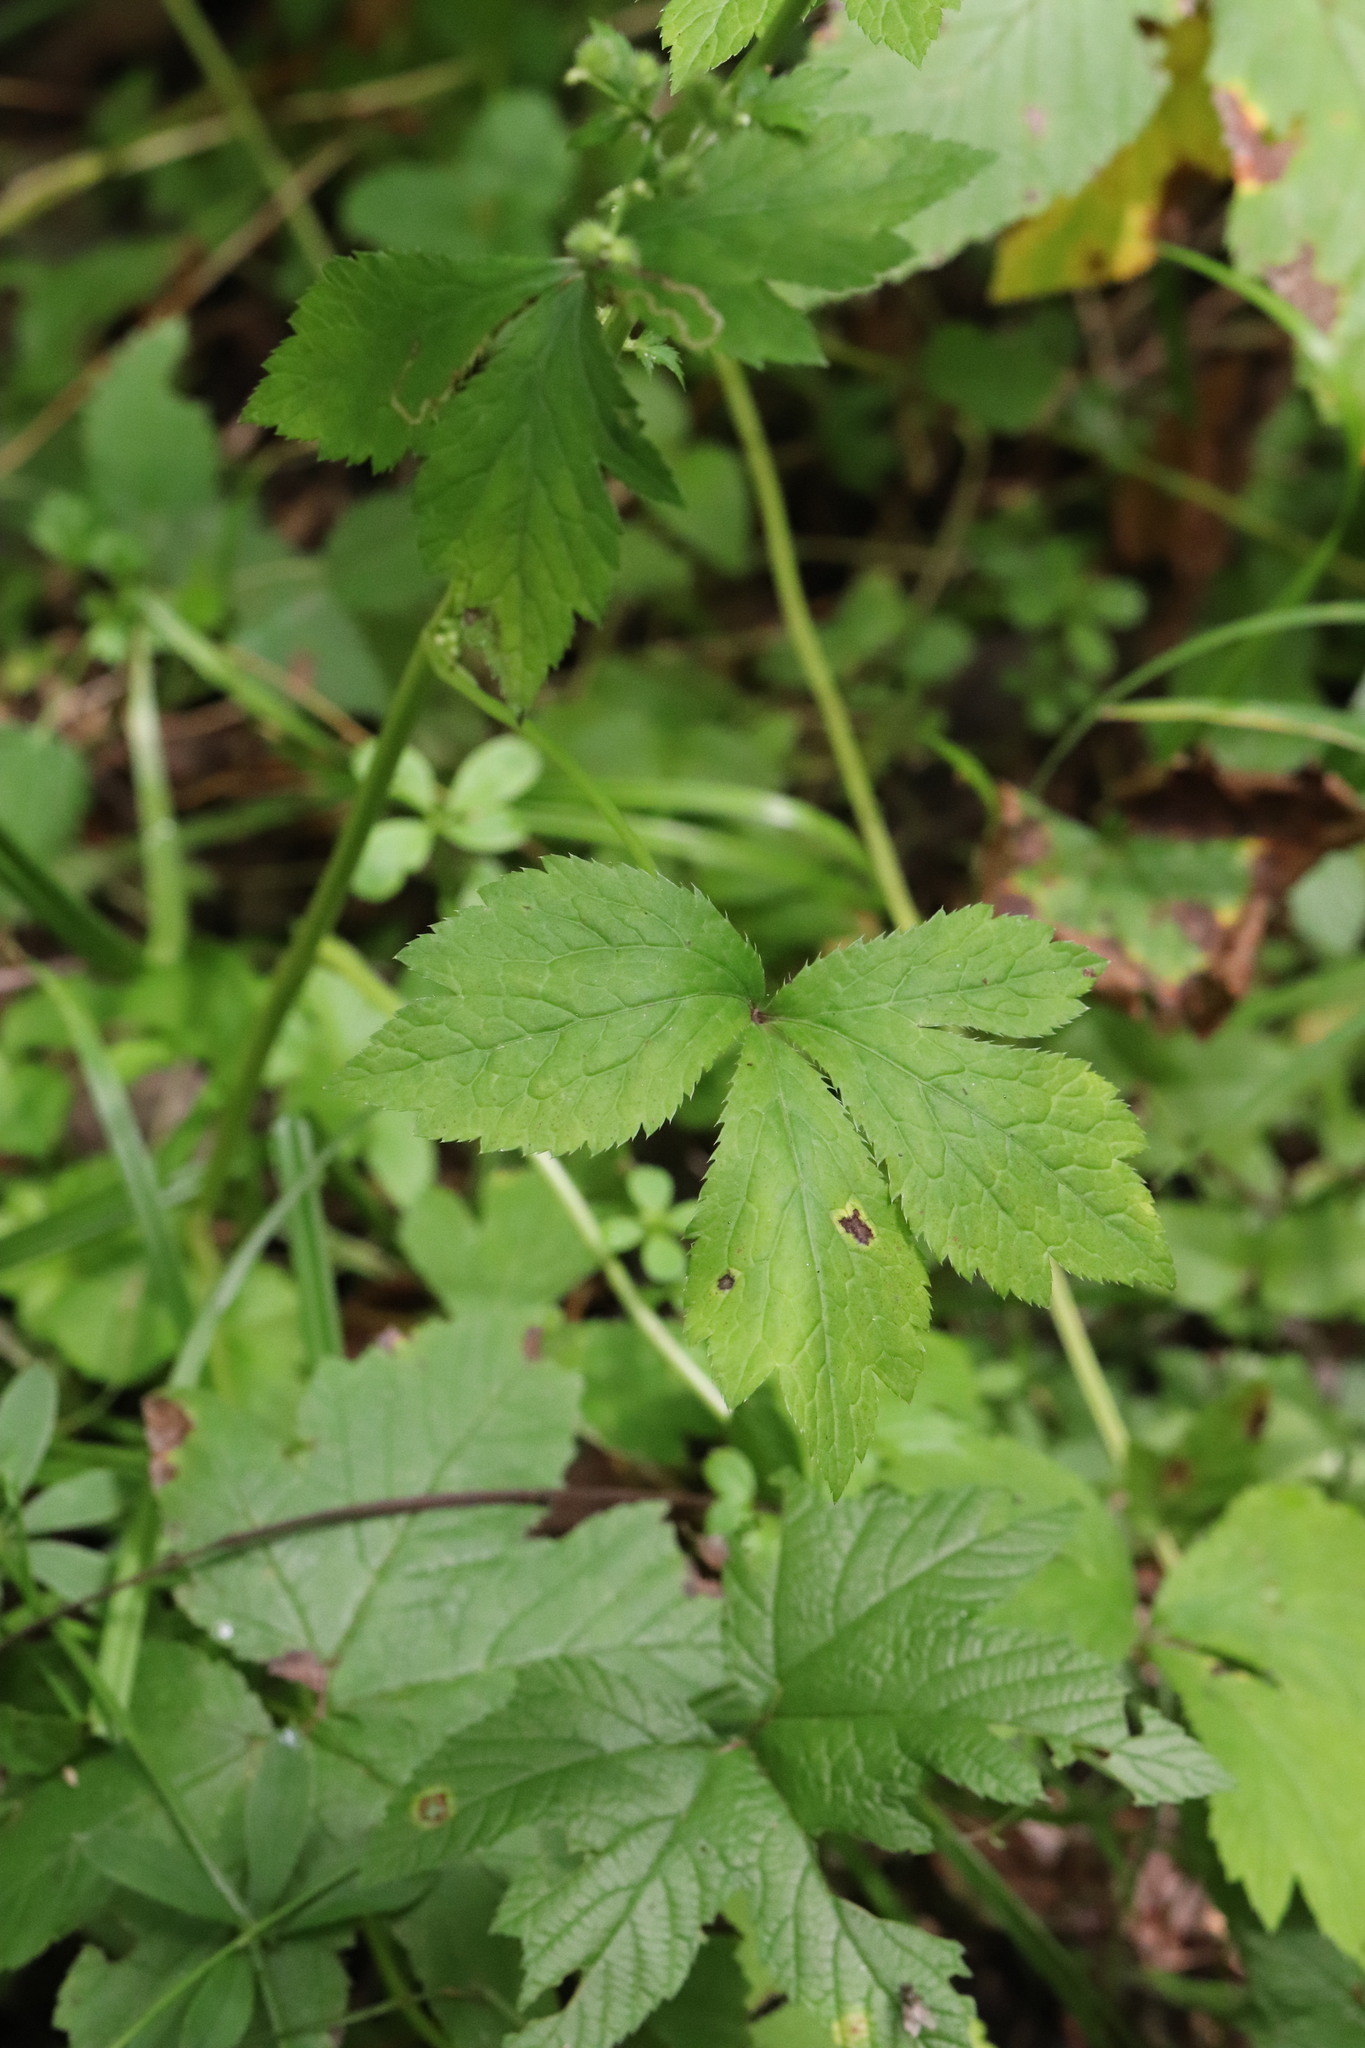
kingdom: Plantae
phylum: Tracheophyta
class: Magnoliopsida
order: Apiales
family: Apiaceae
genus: Sanicula
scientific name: Sanicula chinensis
